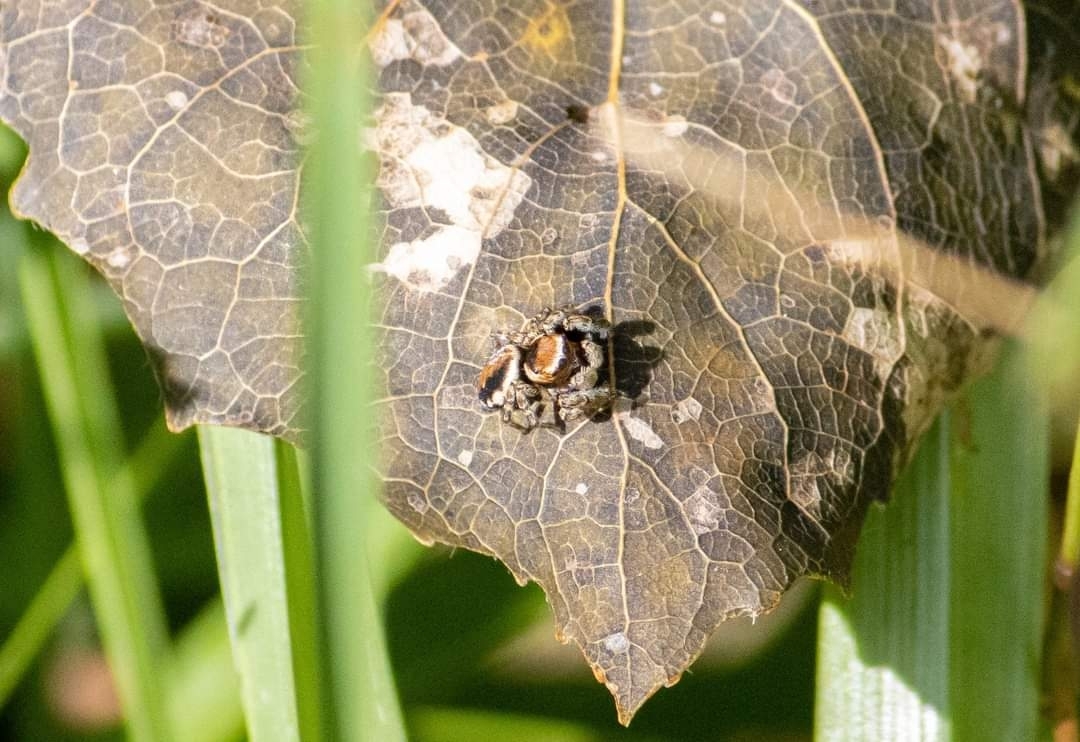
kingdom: Animalia
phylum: Arthropoda
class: Arachnida
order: Araneae
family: Salticidae
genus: Evarcha
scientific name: Evarcha falcata
